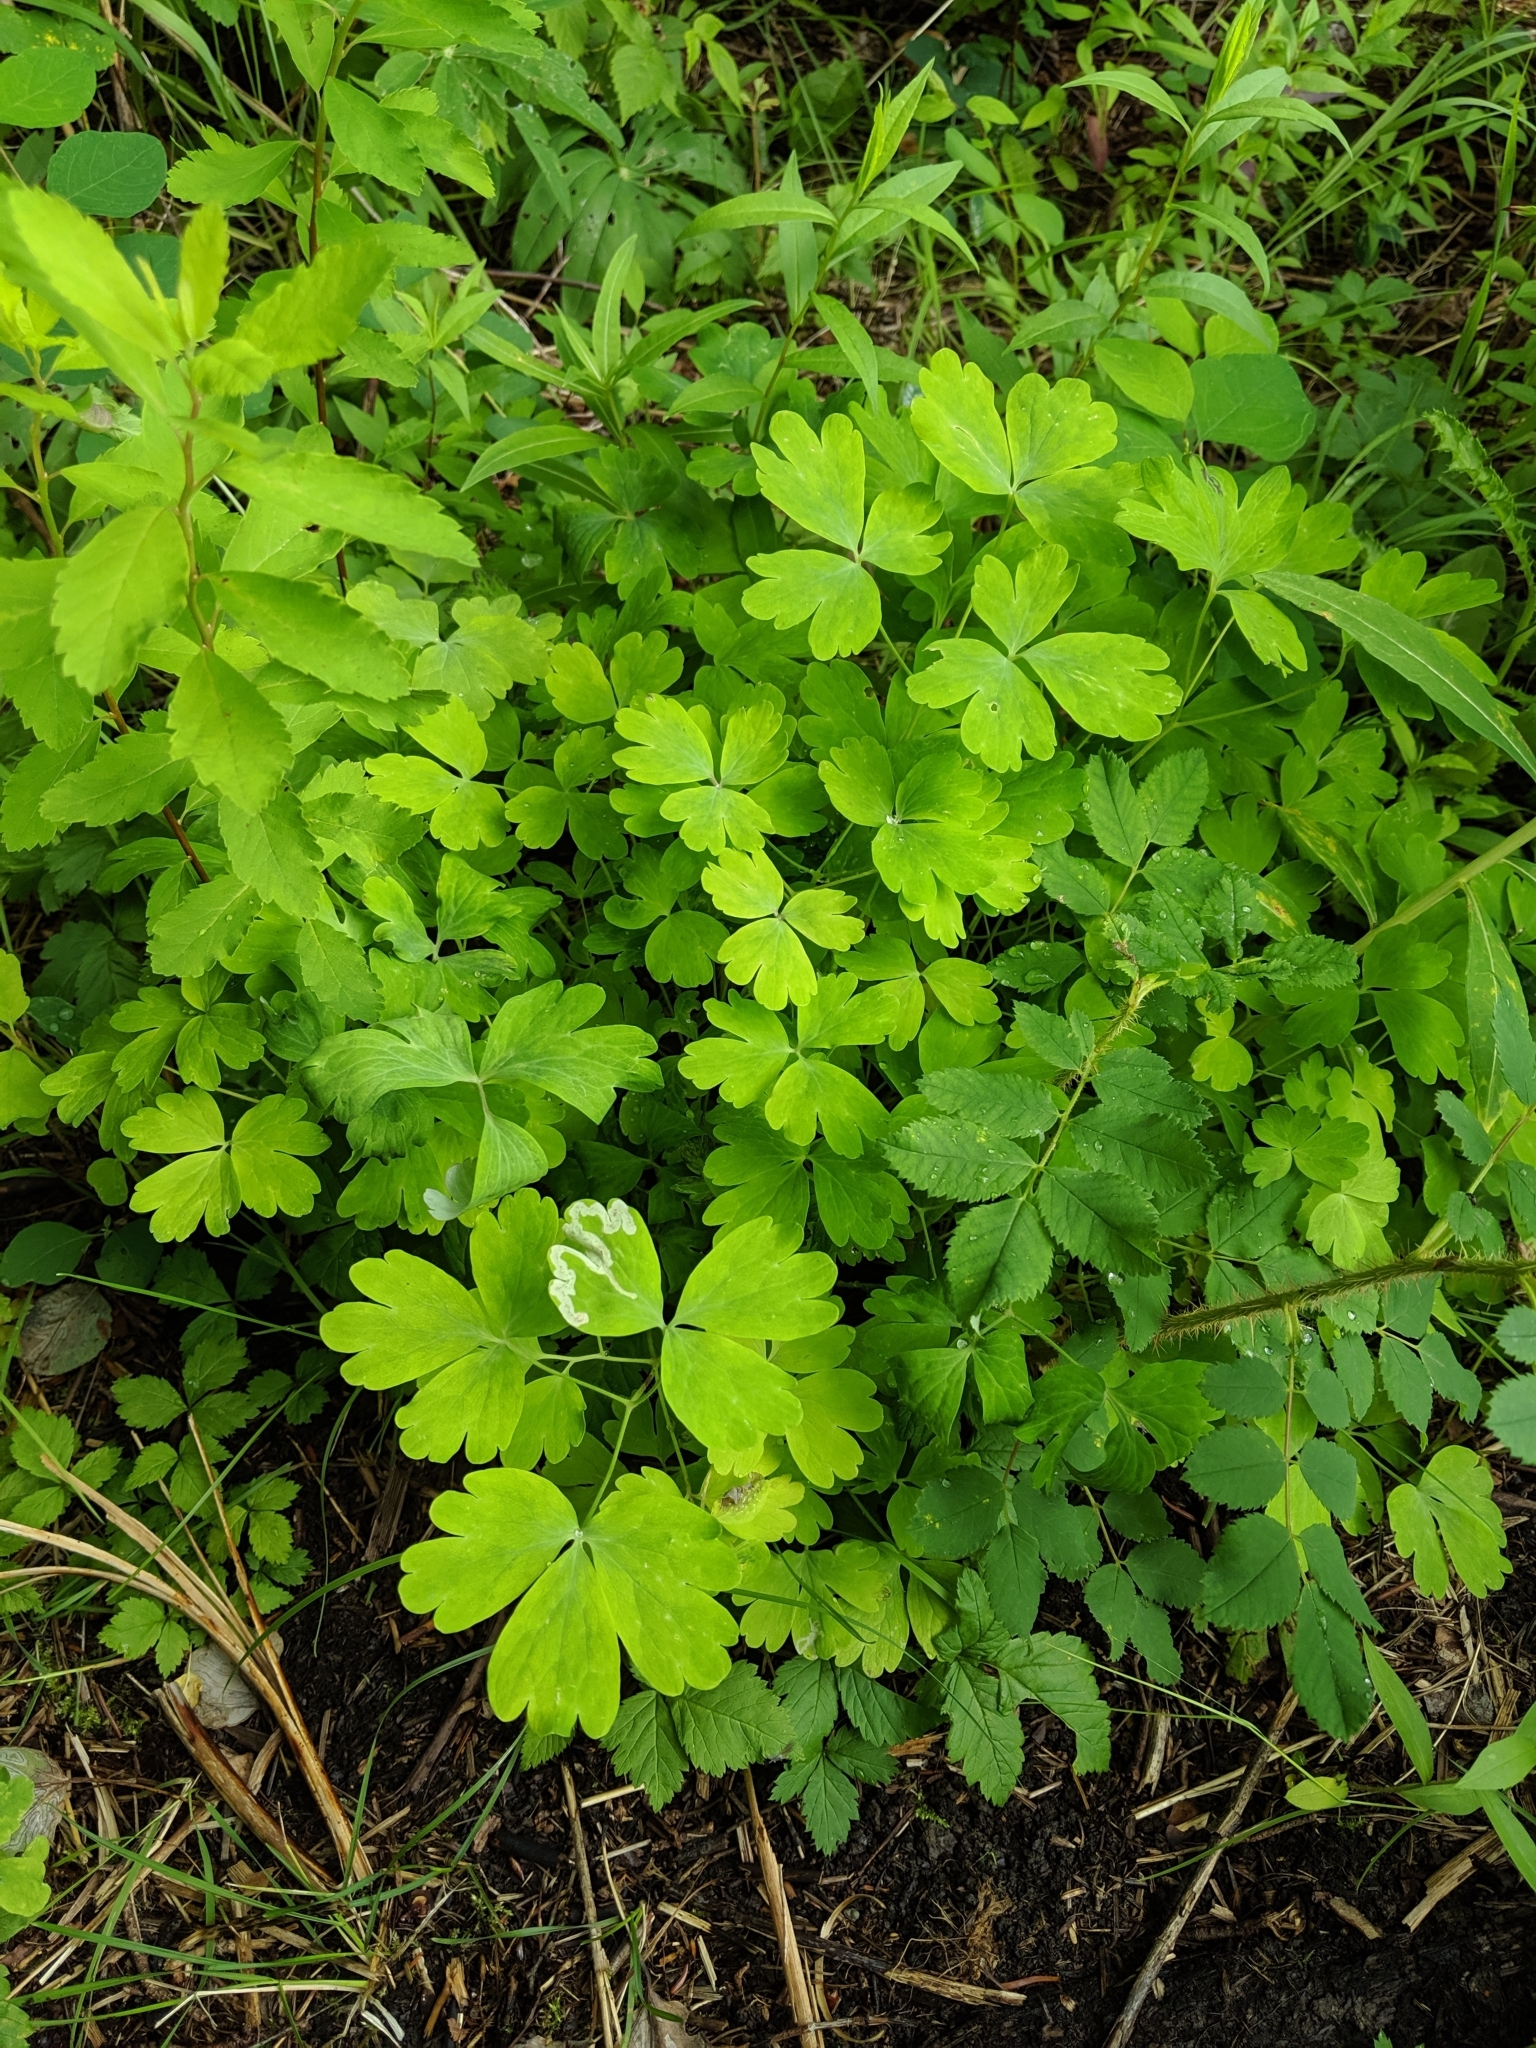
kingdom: Plantae
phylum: Tracheophyta
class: Magnoliopsida
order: Ranunculales
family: Ranunculaceae
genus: Aquilegia
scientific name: Aquilegia formosa
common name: Sitka columbine
